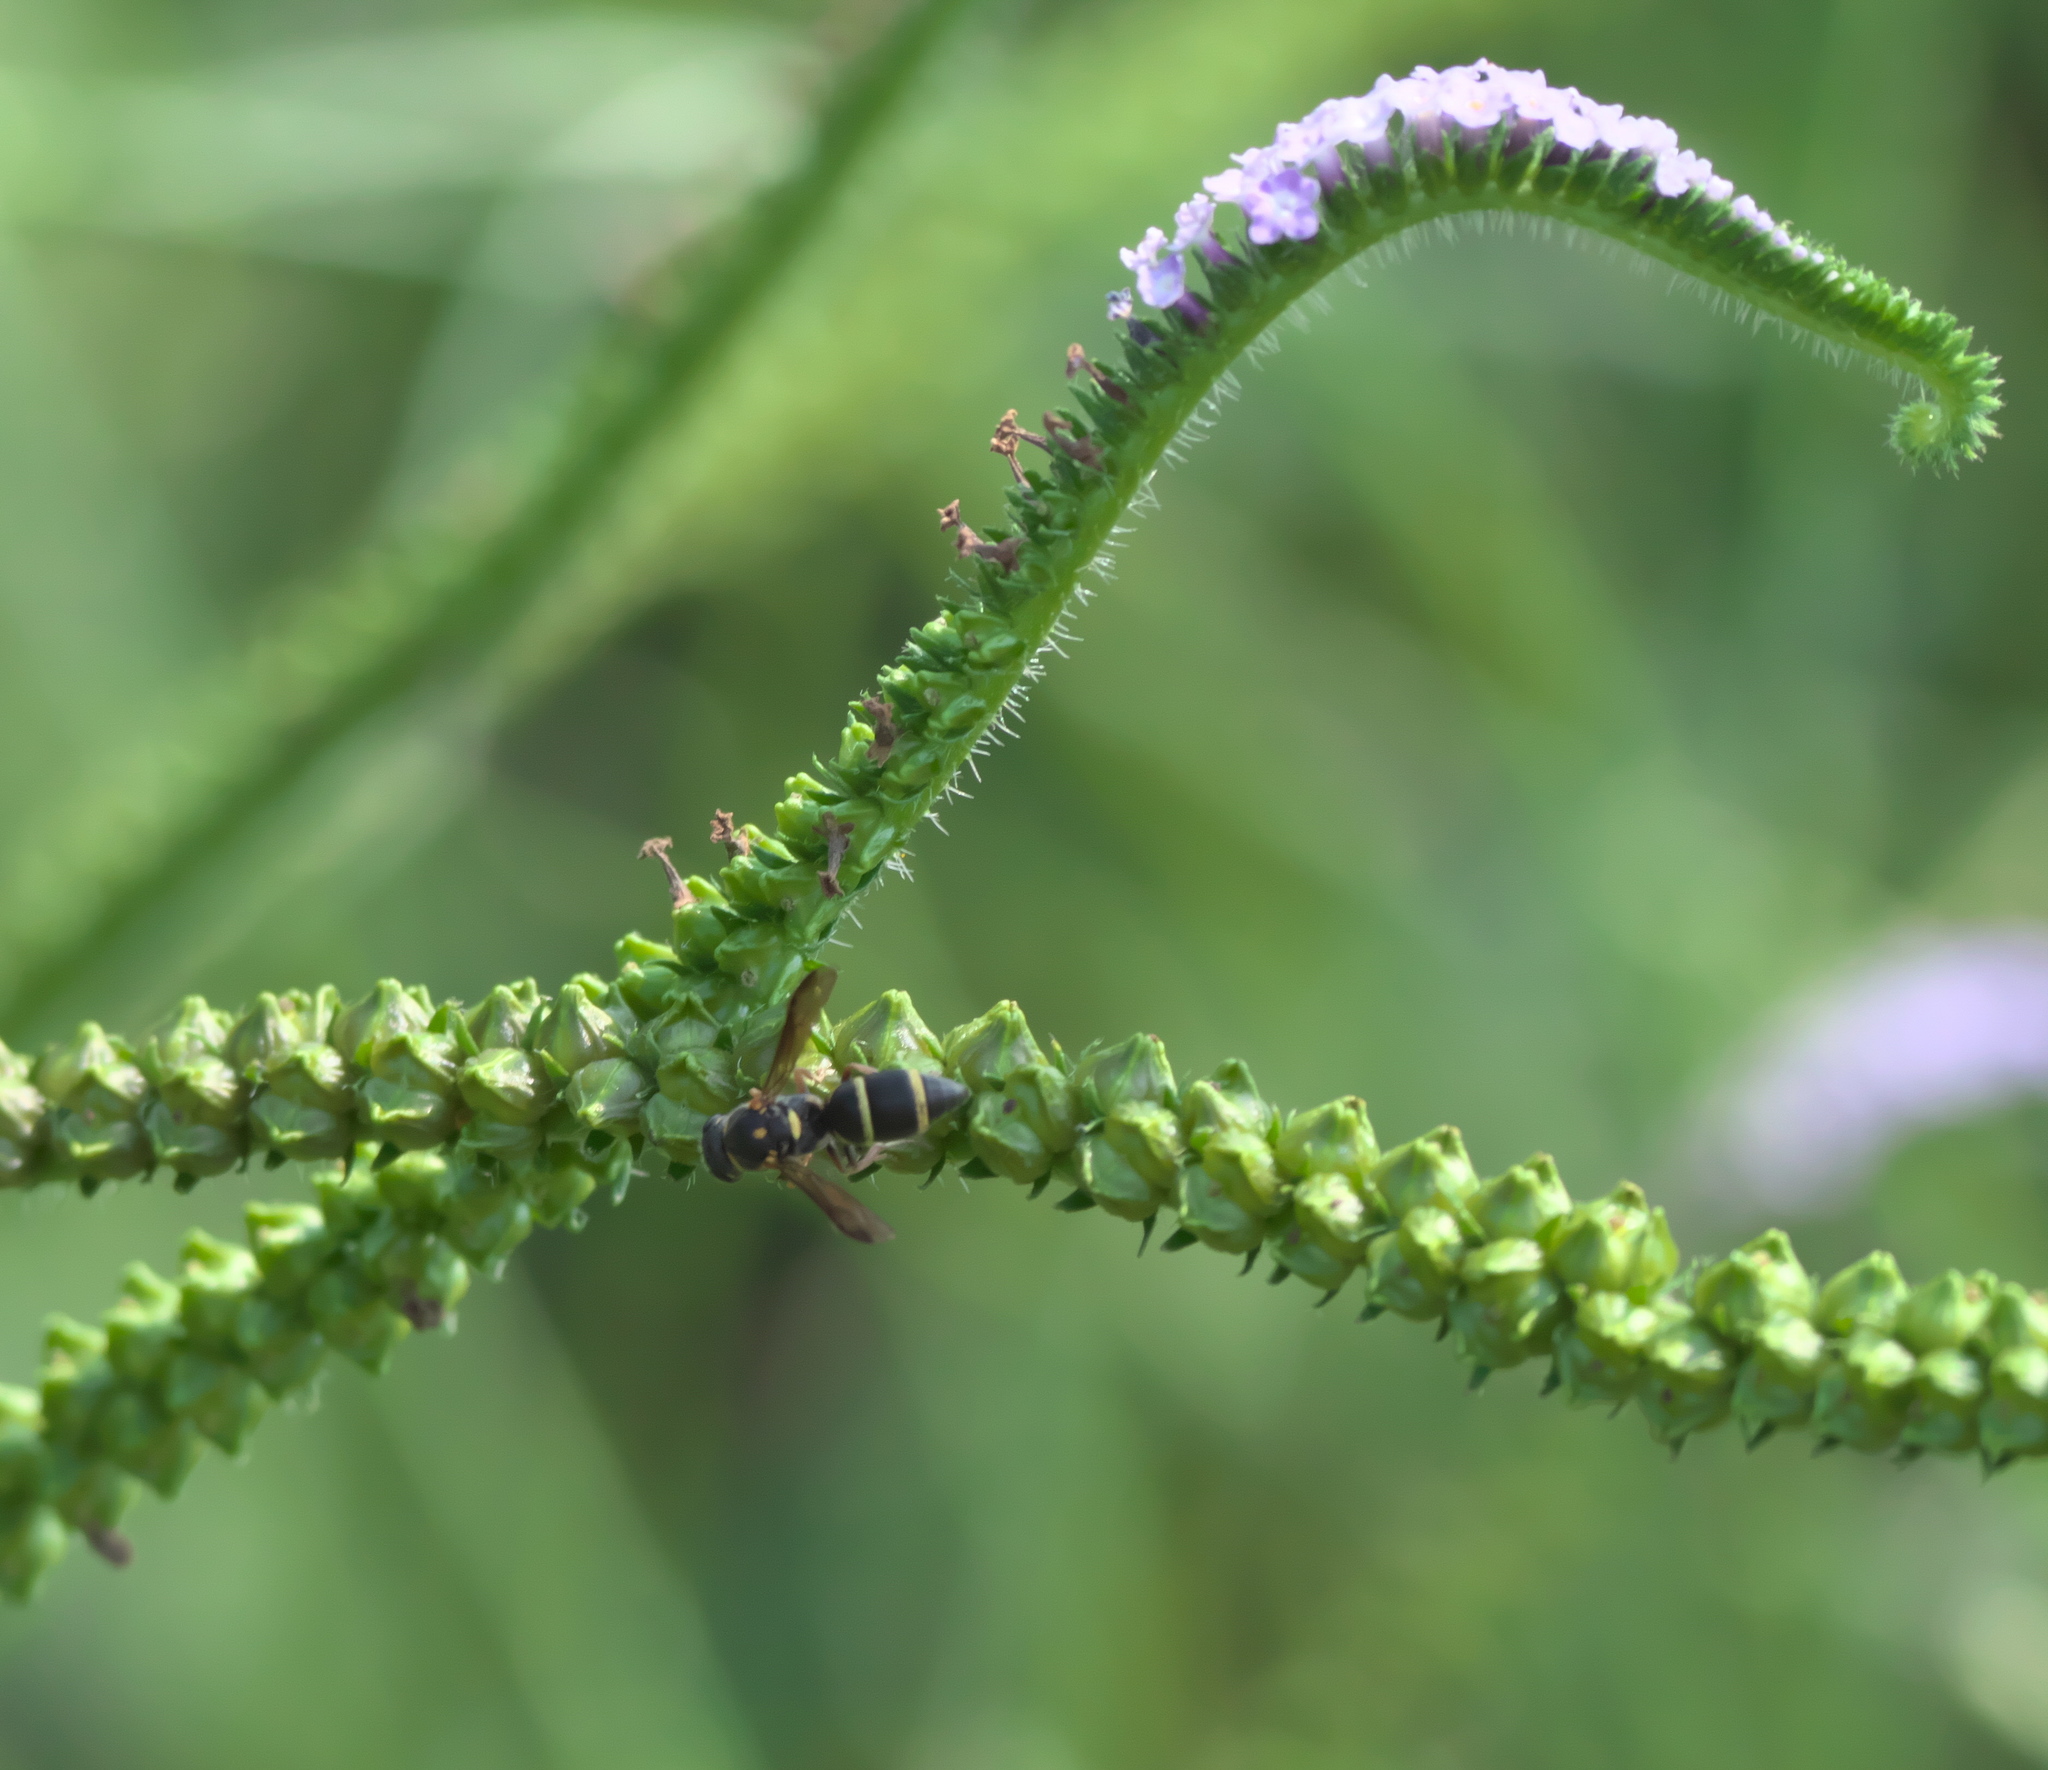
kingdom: Animalia
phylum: Arthropoda
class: Insecta
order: Hymenoptera
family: Eumenidae
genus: Parancistrocerus
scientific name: Parancistrocerus fulvipes
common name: Potter wasp
